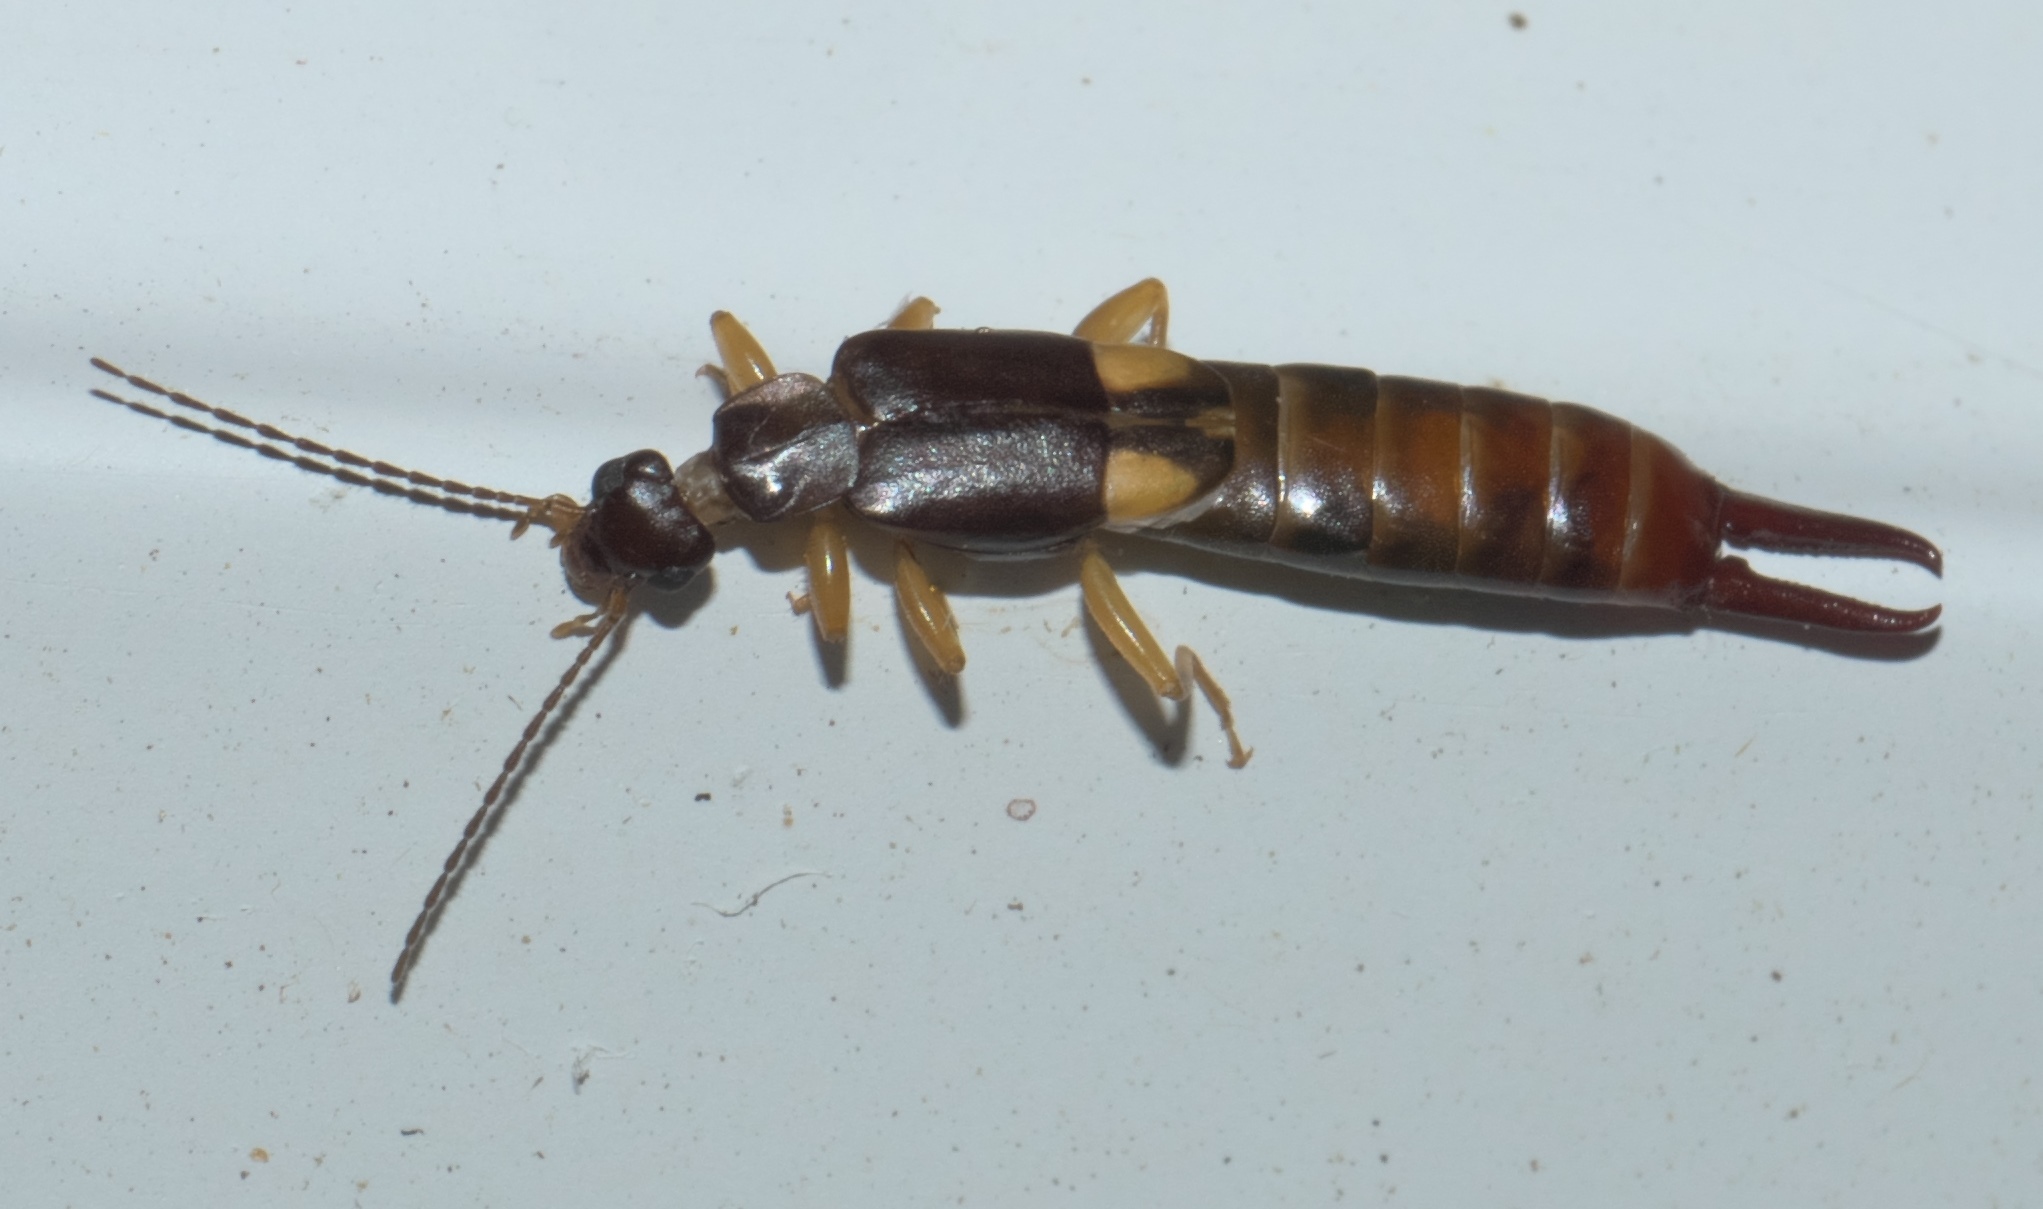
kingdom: Animalia
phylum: Arthropoda
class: Insecta
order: Dermaptera
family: Spongiphoridae
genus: Vostox
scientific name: Vostox brunneipennis
